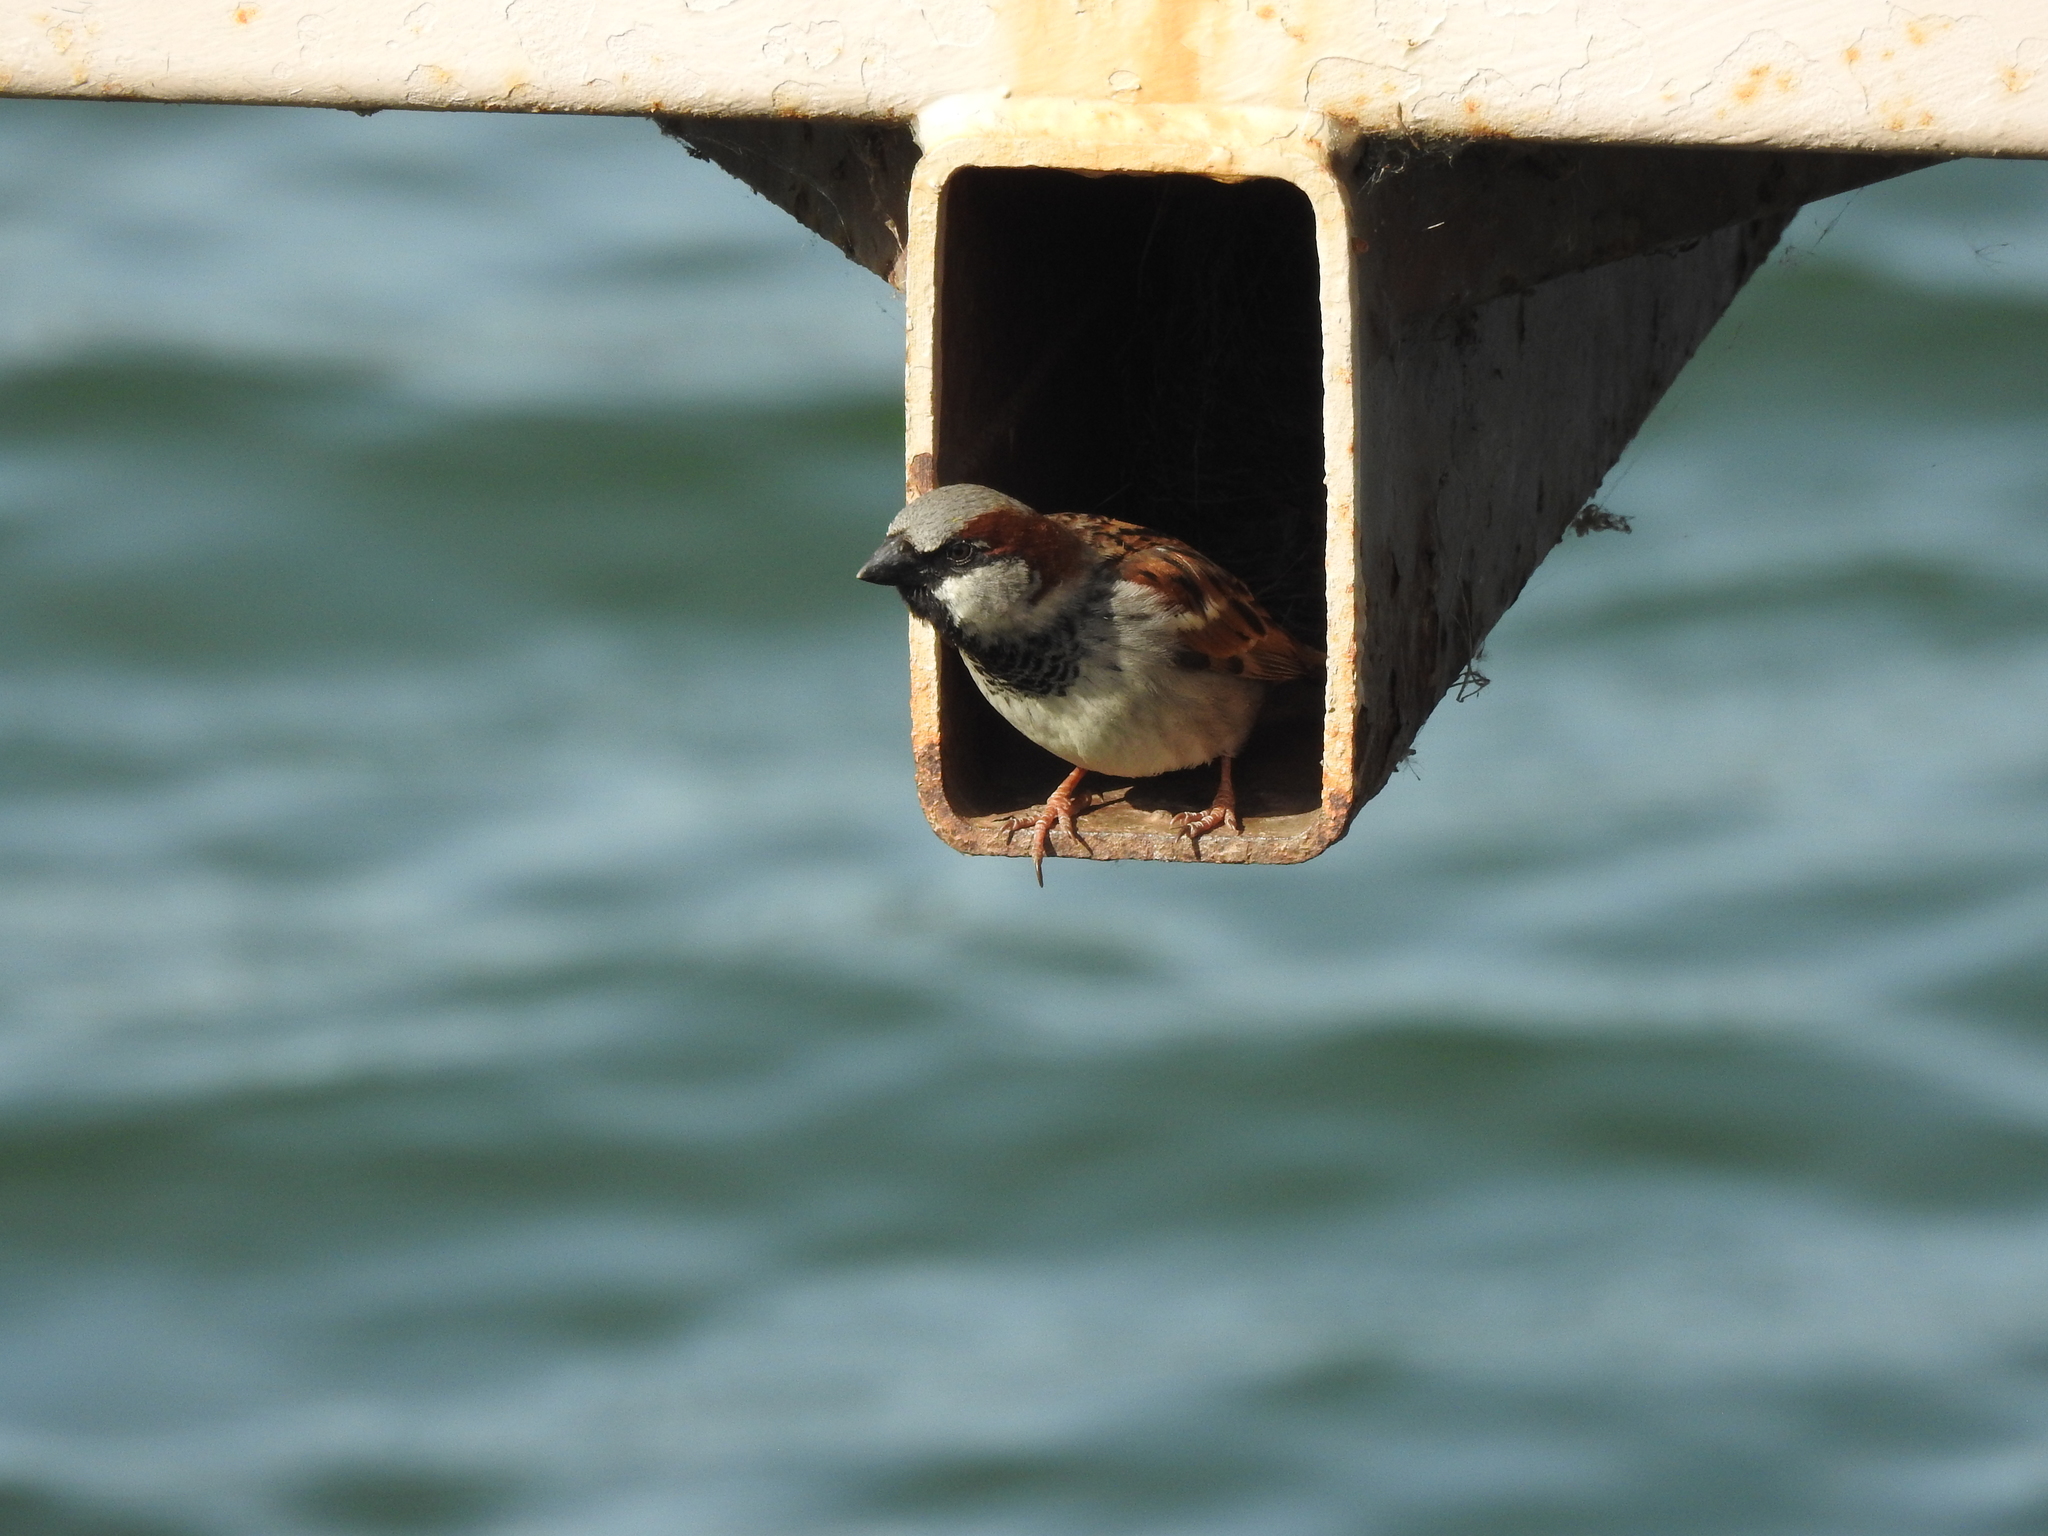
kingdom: Animalia
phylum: Chordata
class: Aves
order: Passeriformes
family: Passeridae
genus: Passer
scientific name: Passer domesticus
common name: House sparrow
